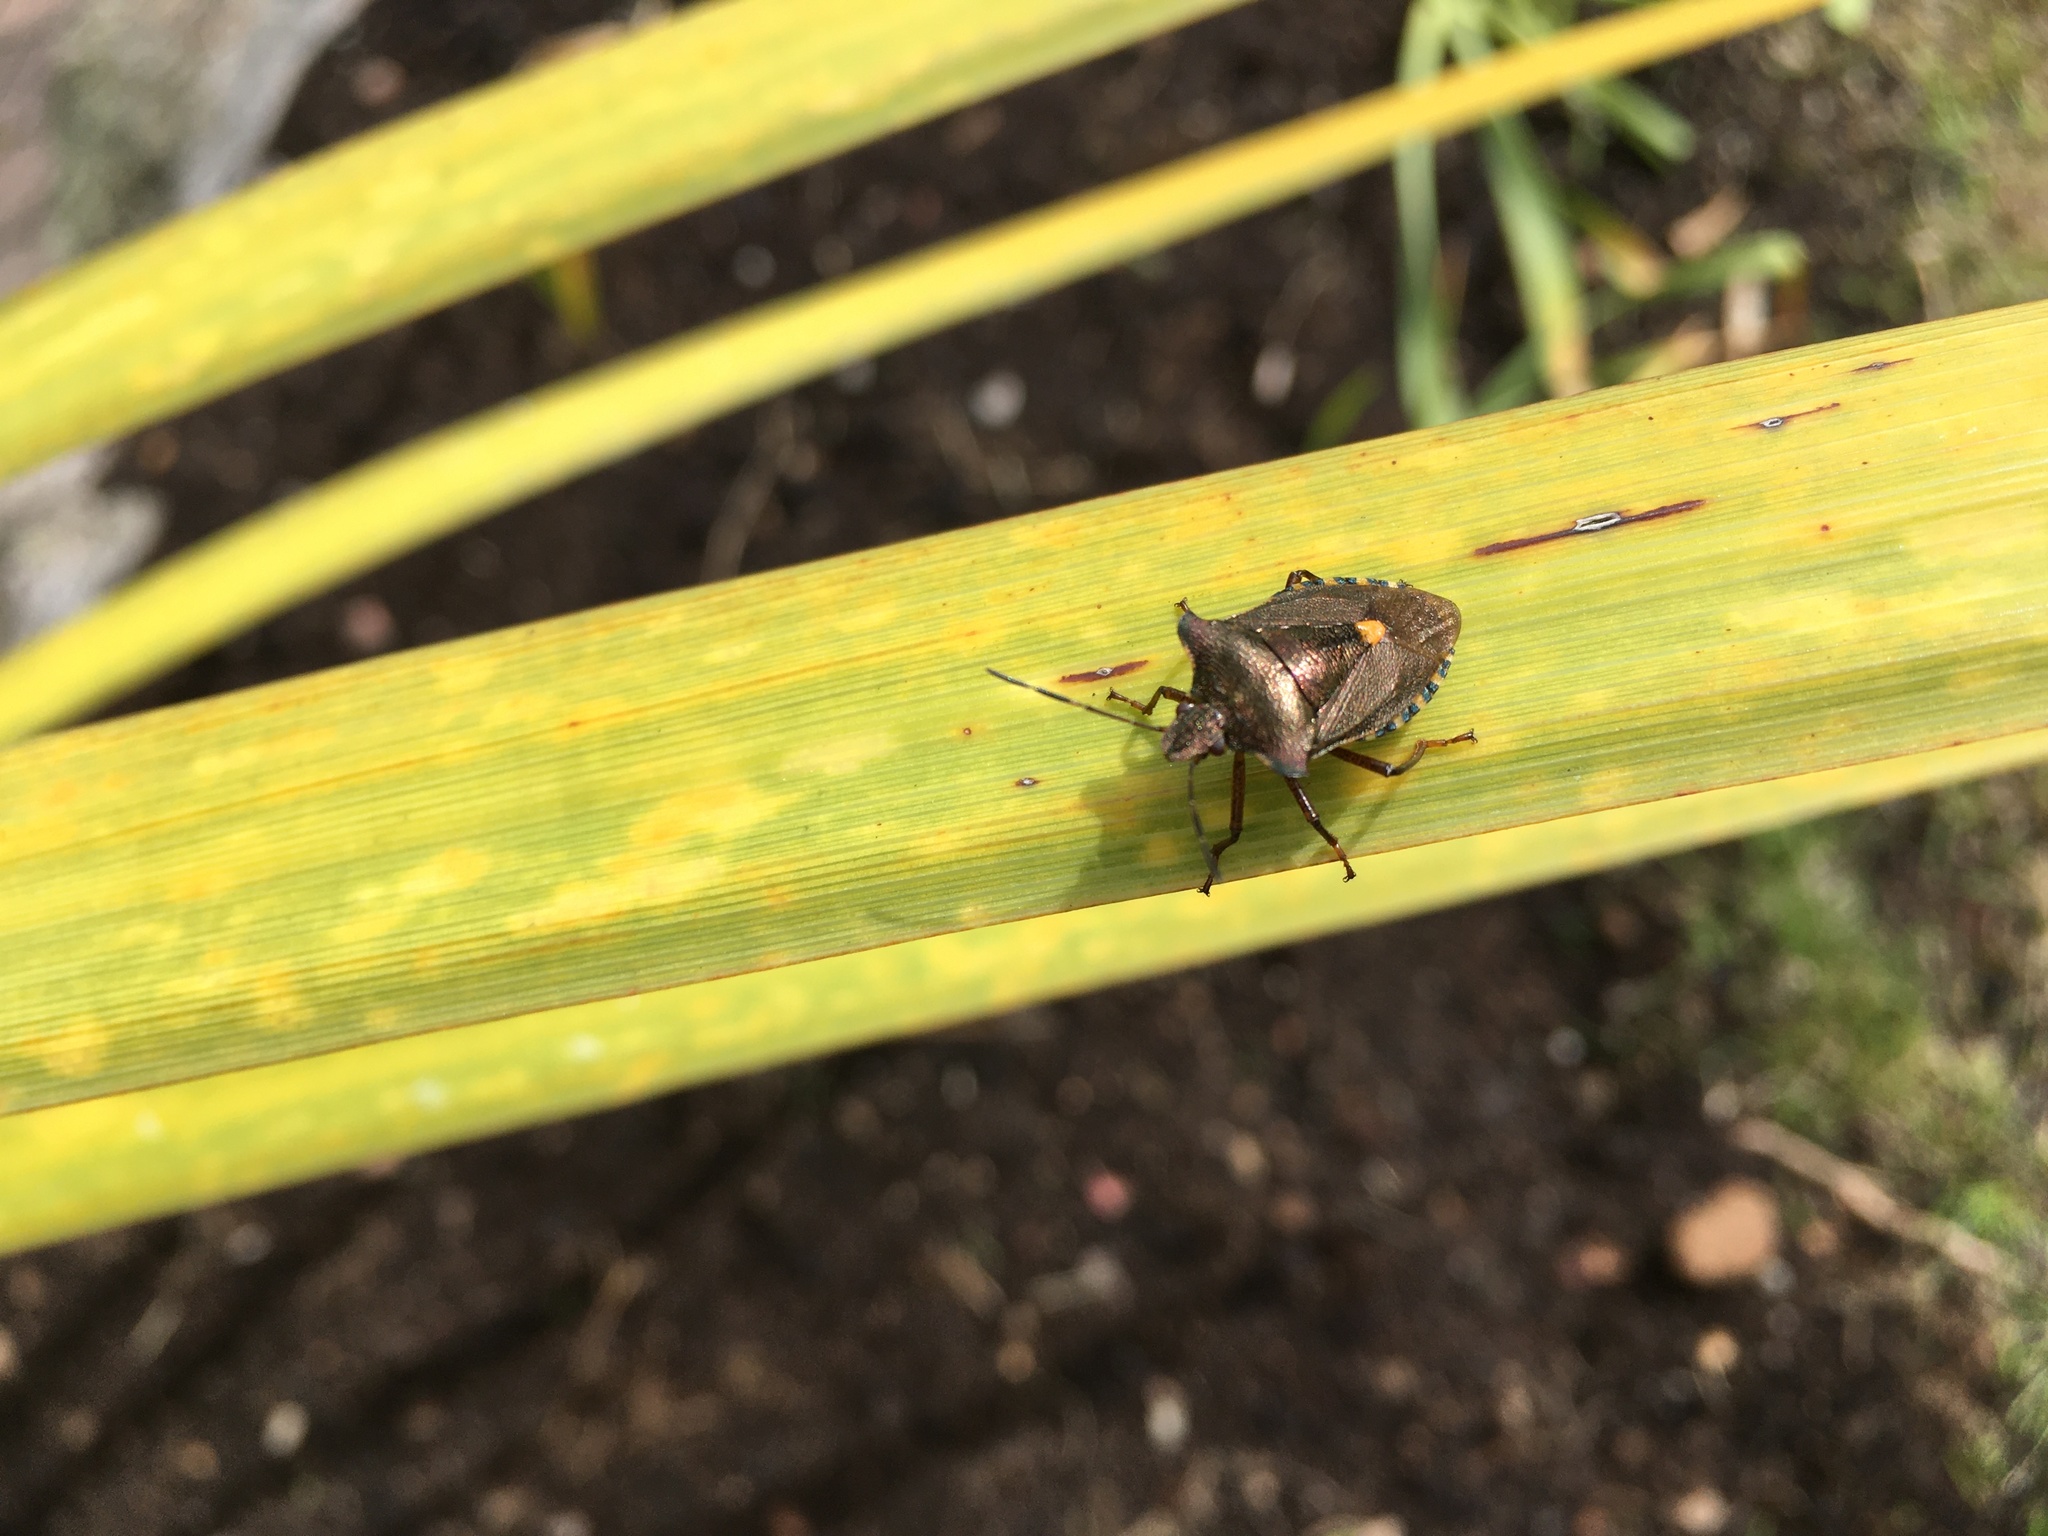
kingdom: Animalia
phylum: Arthropoda
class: Insecta
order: Hemiptera
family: Pentatomidae
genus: Pentatoma
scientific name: Pentatoma rufipes
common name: Forest bug
